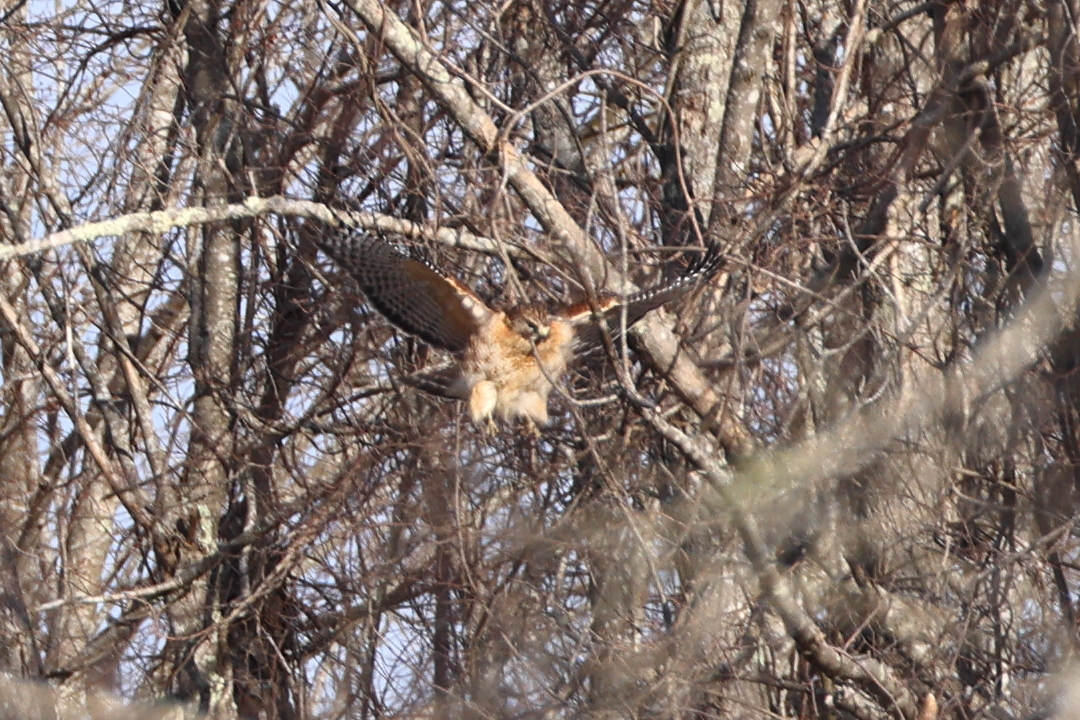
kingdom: Animalia
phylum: Chordata
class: Aves
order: Accipitriformes
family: Accipitridae
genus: Buteo
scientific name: Buteo lineatus
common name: Red-shouldered hawk
